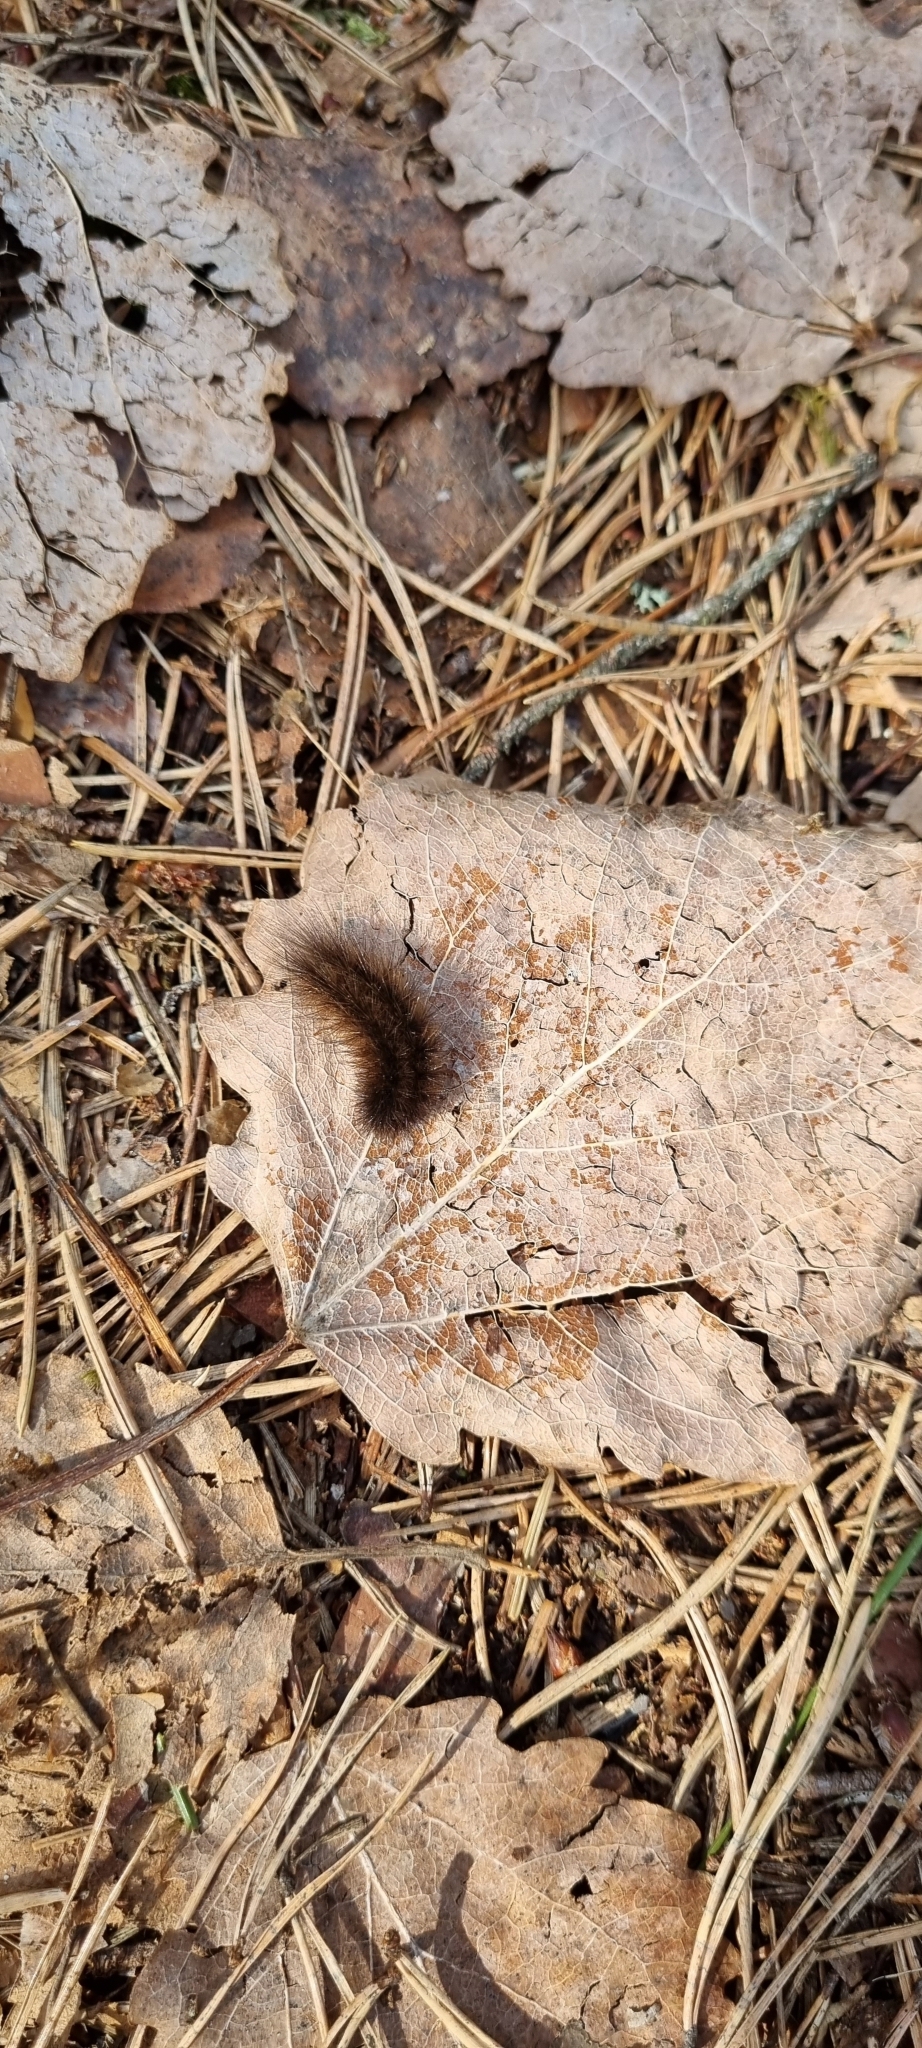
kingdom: Animalia
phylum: Arthropoda
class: Insecta
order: Lepidoptera
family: Erebidae
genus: Phragmatobia
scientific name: Phragmatobia fuliginosa
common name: Ruby tiger
